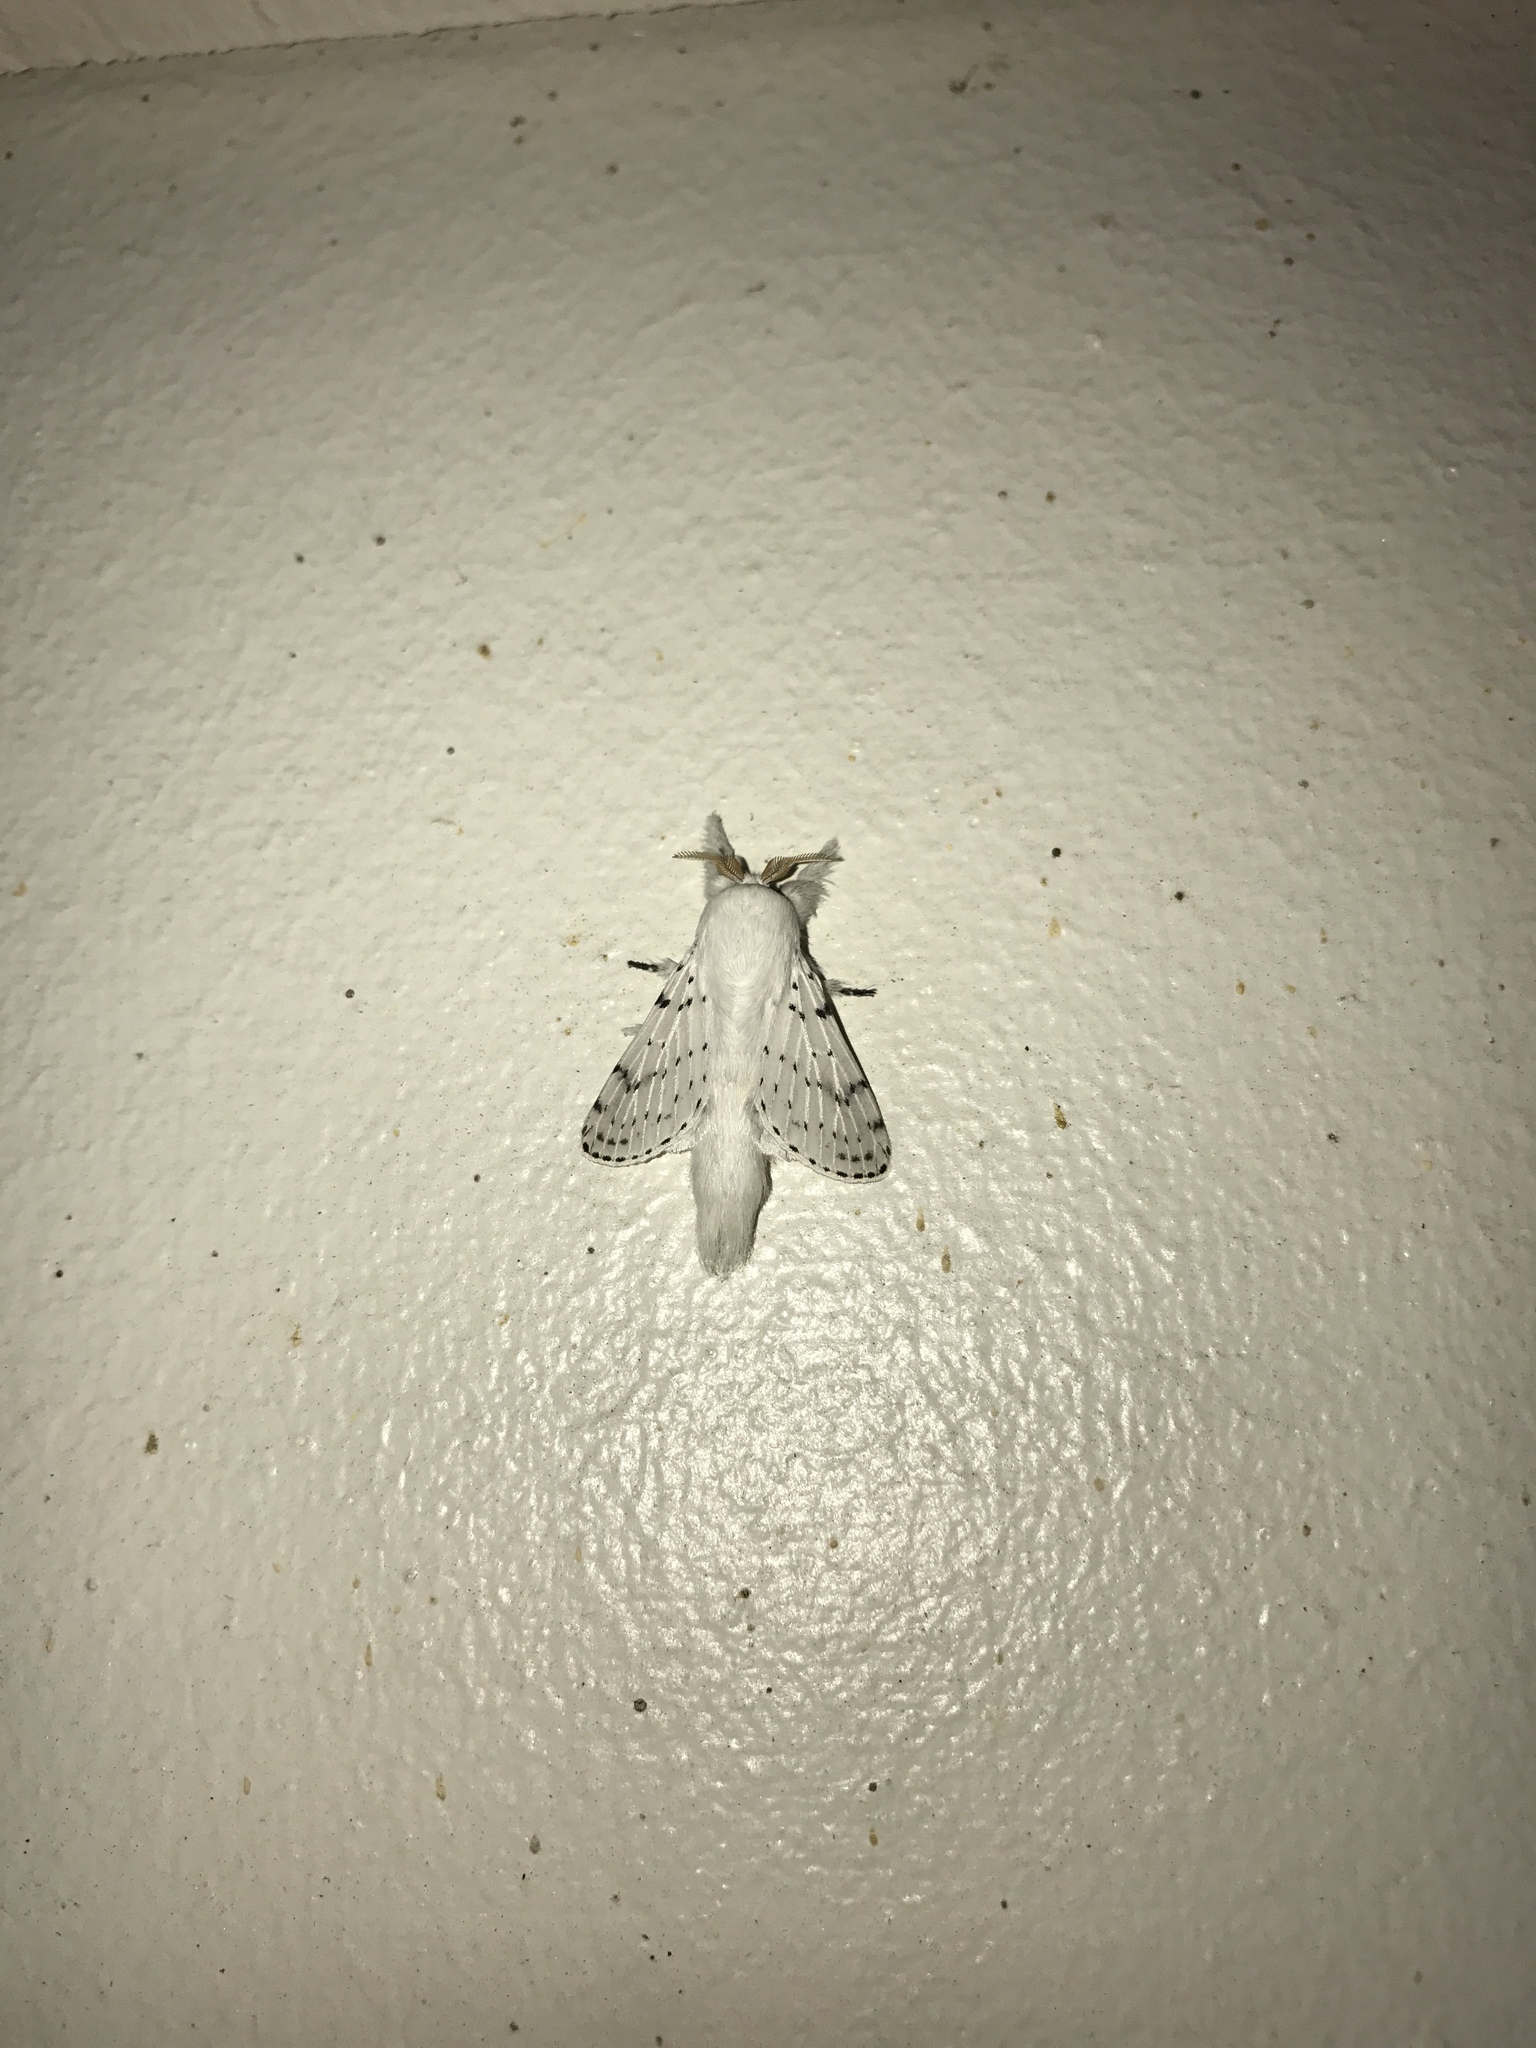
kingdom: Animalia
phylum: Arthropoda
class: Insecta
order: Lepidoptera
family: Lasiocampidae
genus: Artace
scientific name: Artace cribrarius
